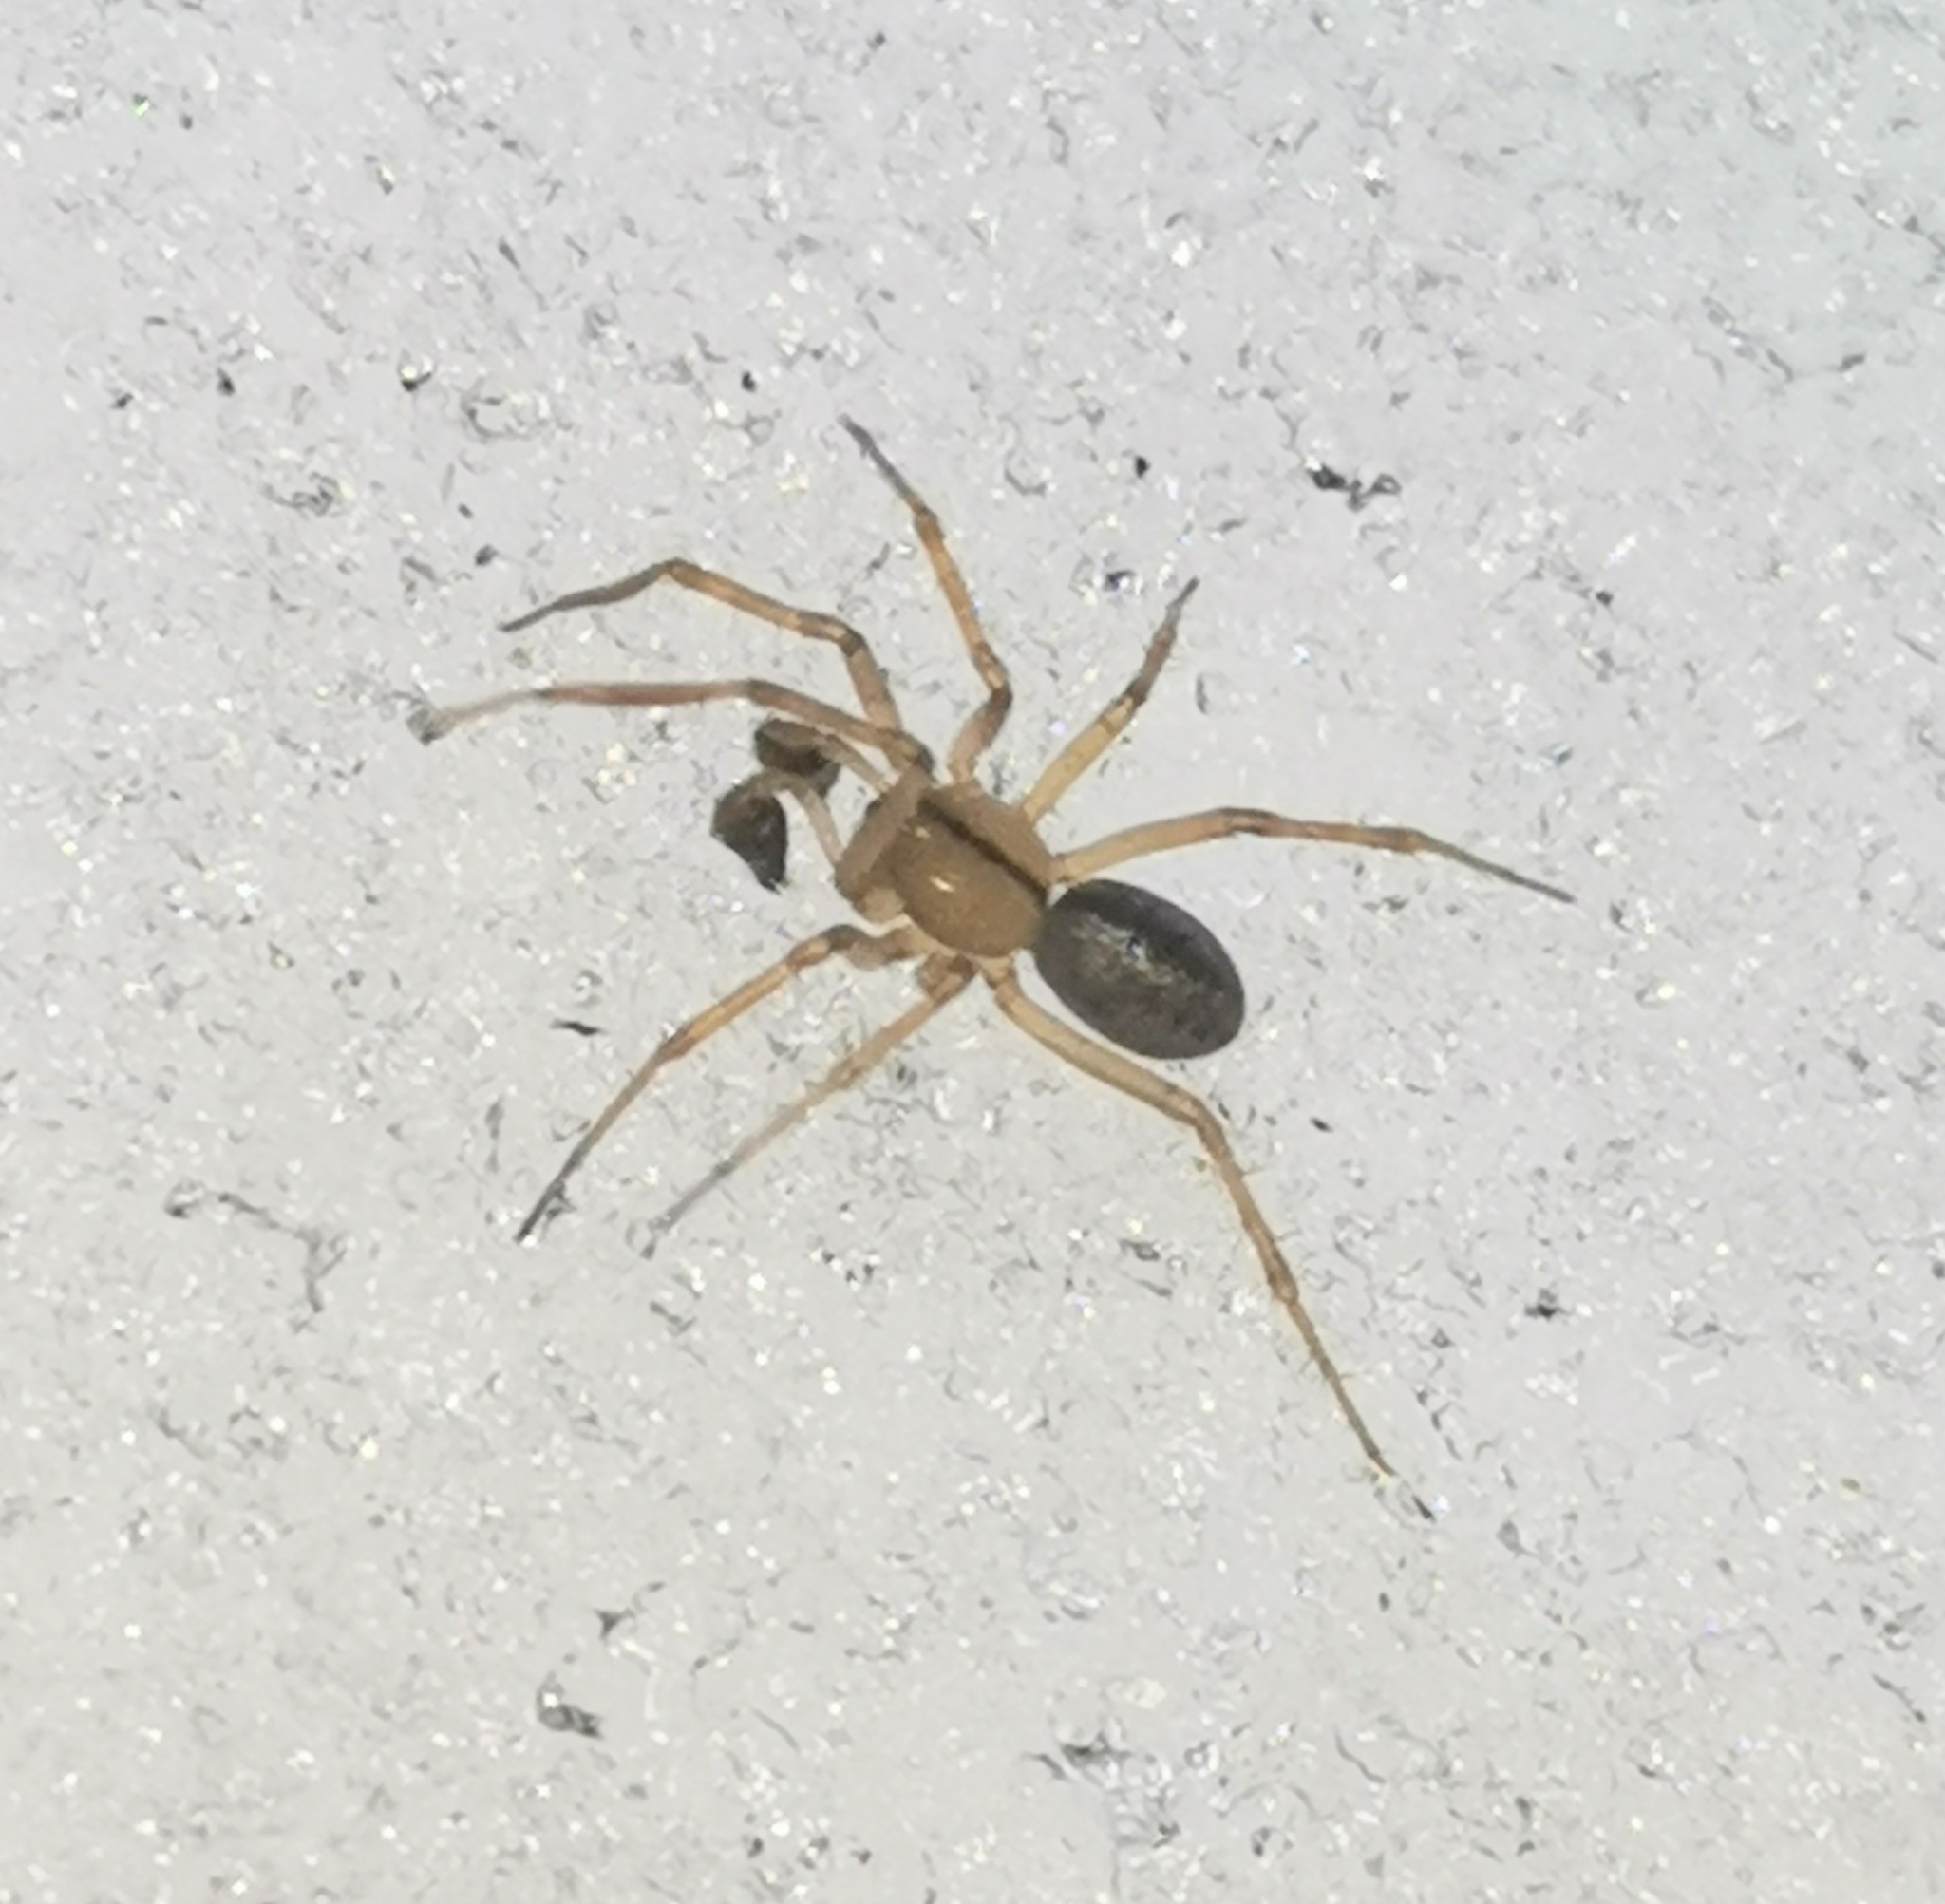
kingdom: Animalia
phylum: Arthropoda
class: Arachnida
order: Araneae
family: Linyphiidae
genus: Stemonyphantes
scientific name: Stemonyphantes lineatus
